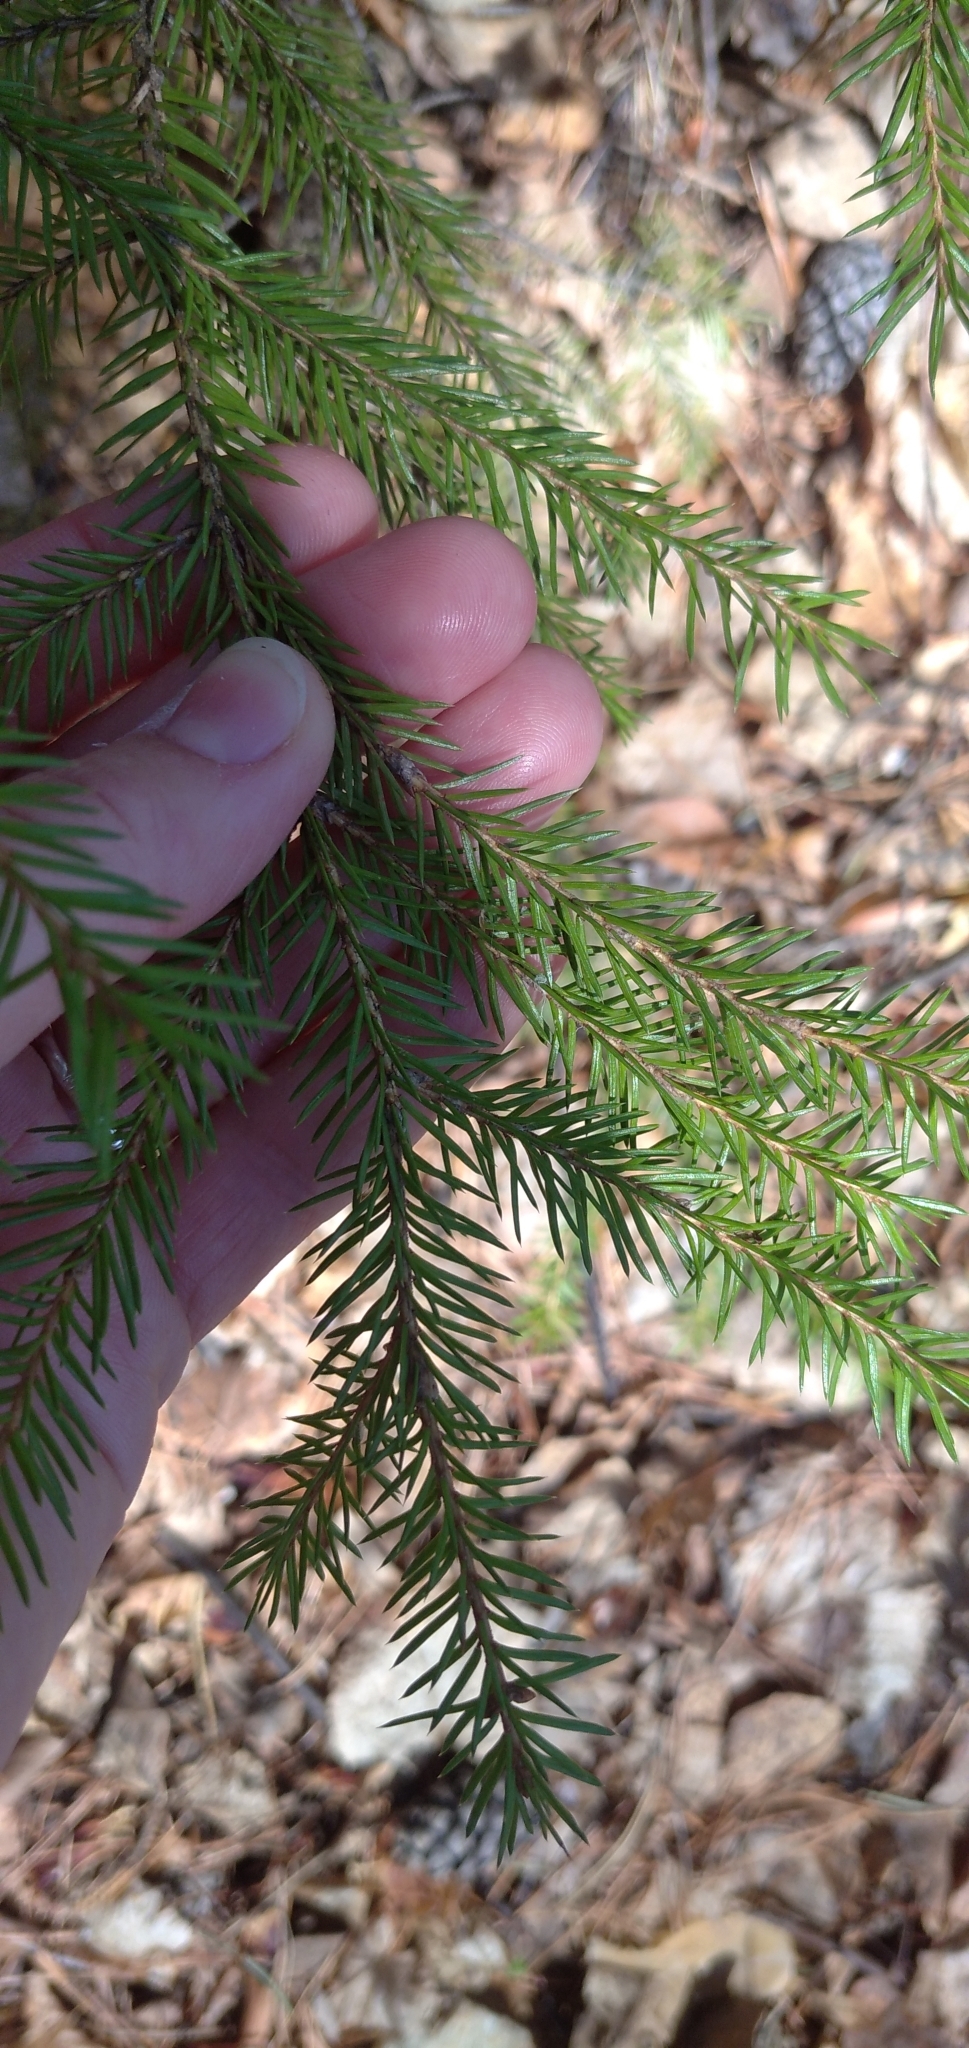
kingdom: Plantae
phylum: Tracheophyta
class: Pinopsida
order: Pinales
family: Pinaceae
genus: Picea
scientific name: Picea
